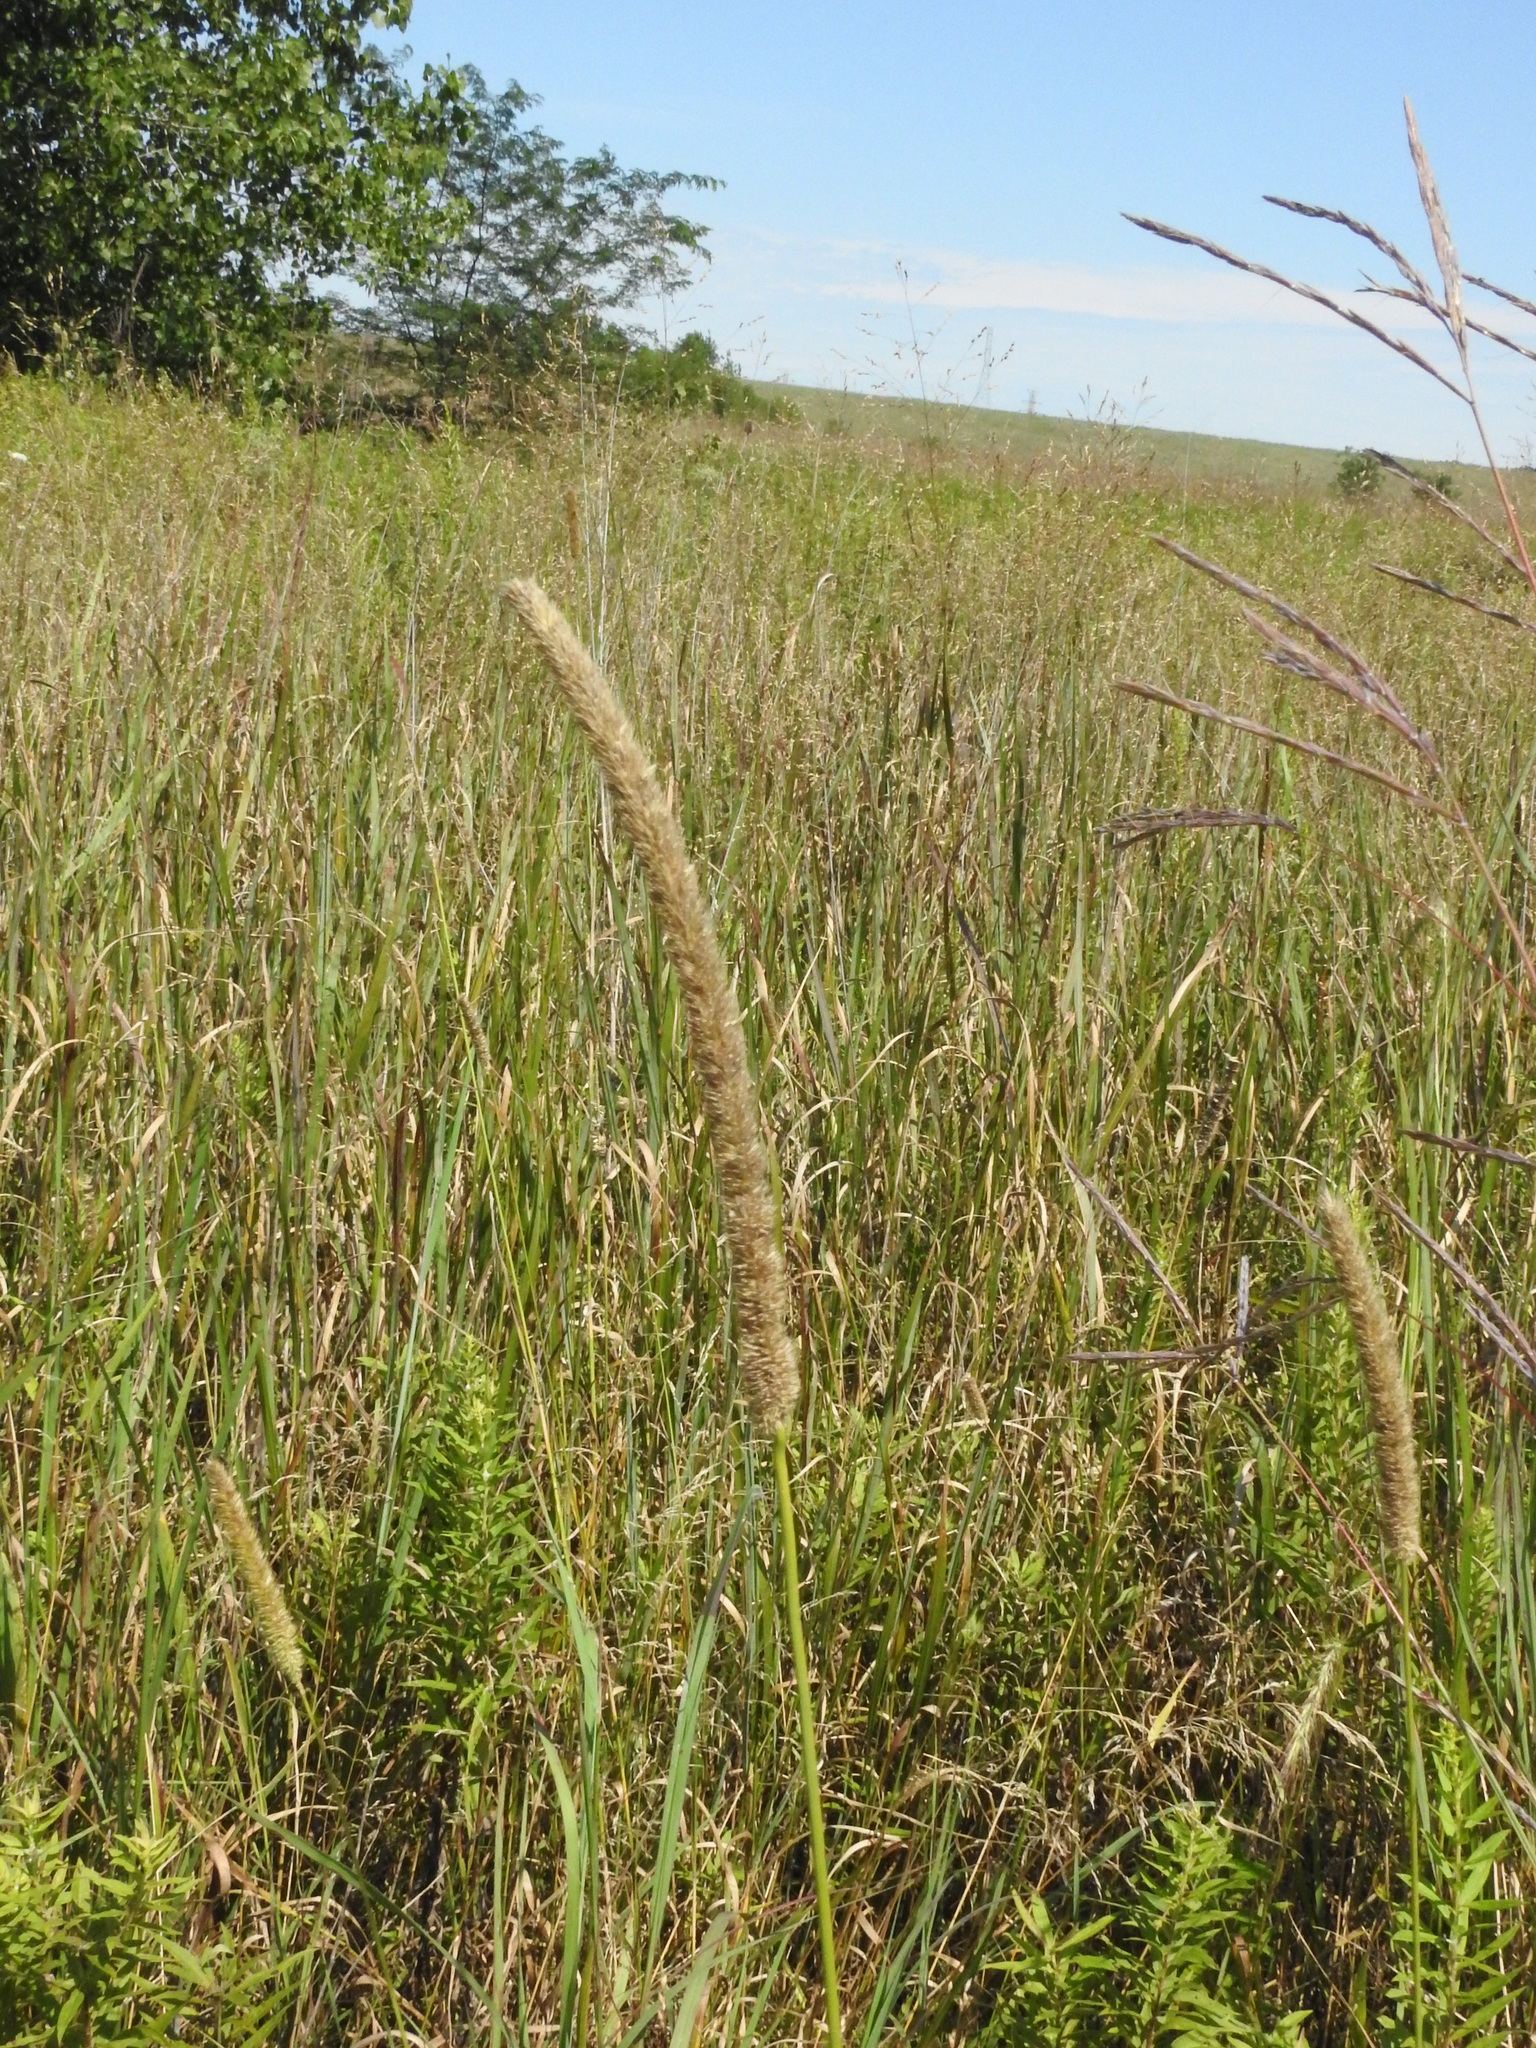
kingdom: Plantae
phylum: Tracheophyta
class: Liliopsida
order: Poales
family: Poaceae
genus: Phleum
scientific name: Phleum pratense
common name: Timothy grass
